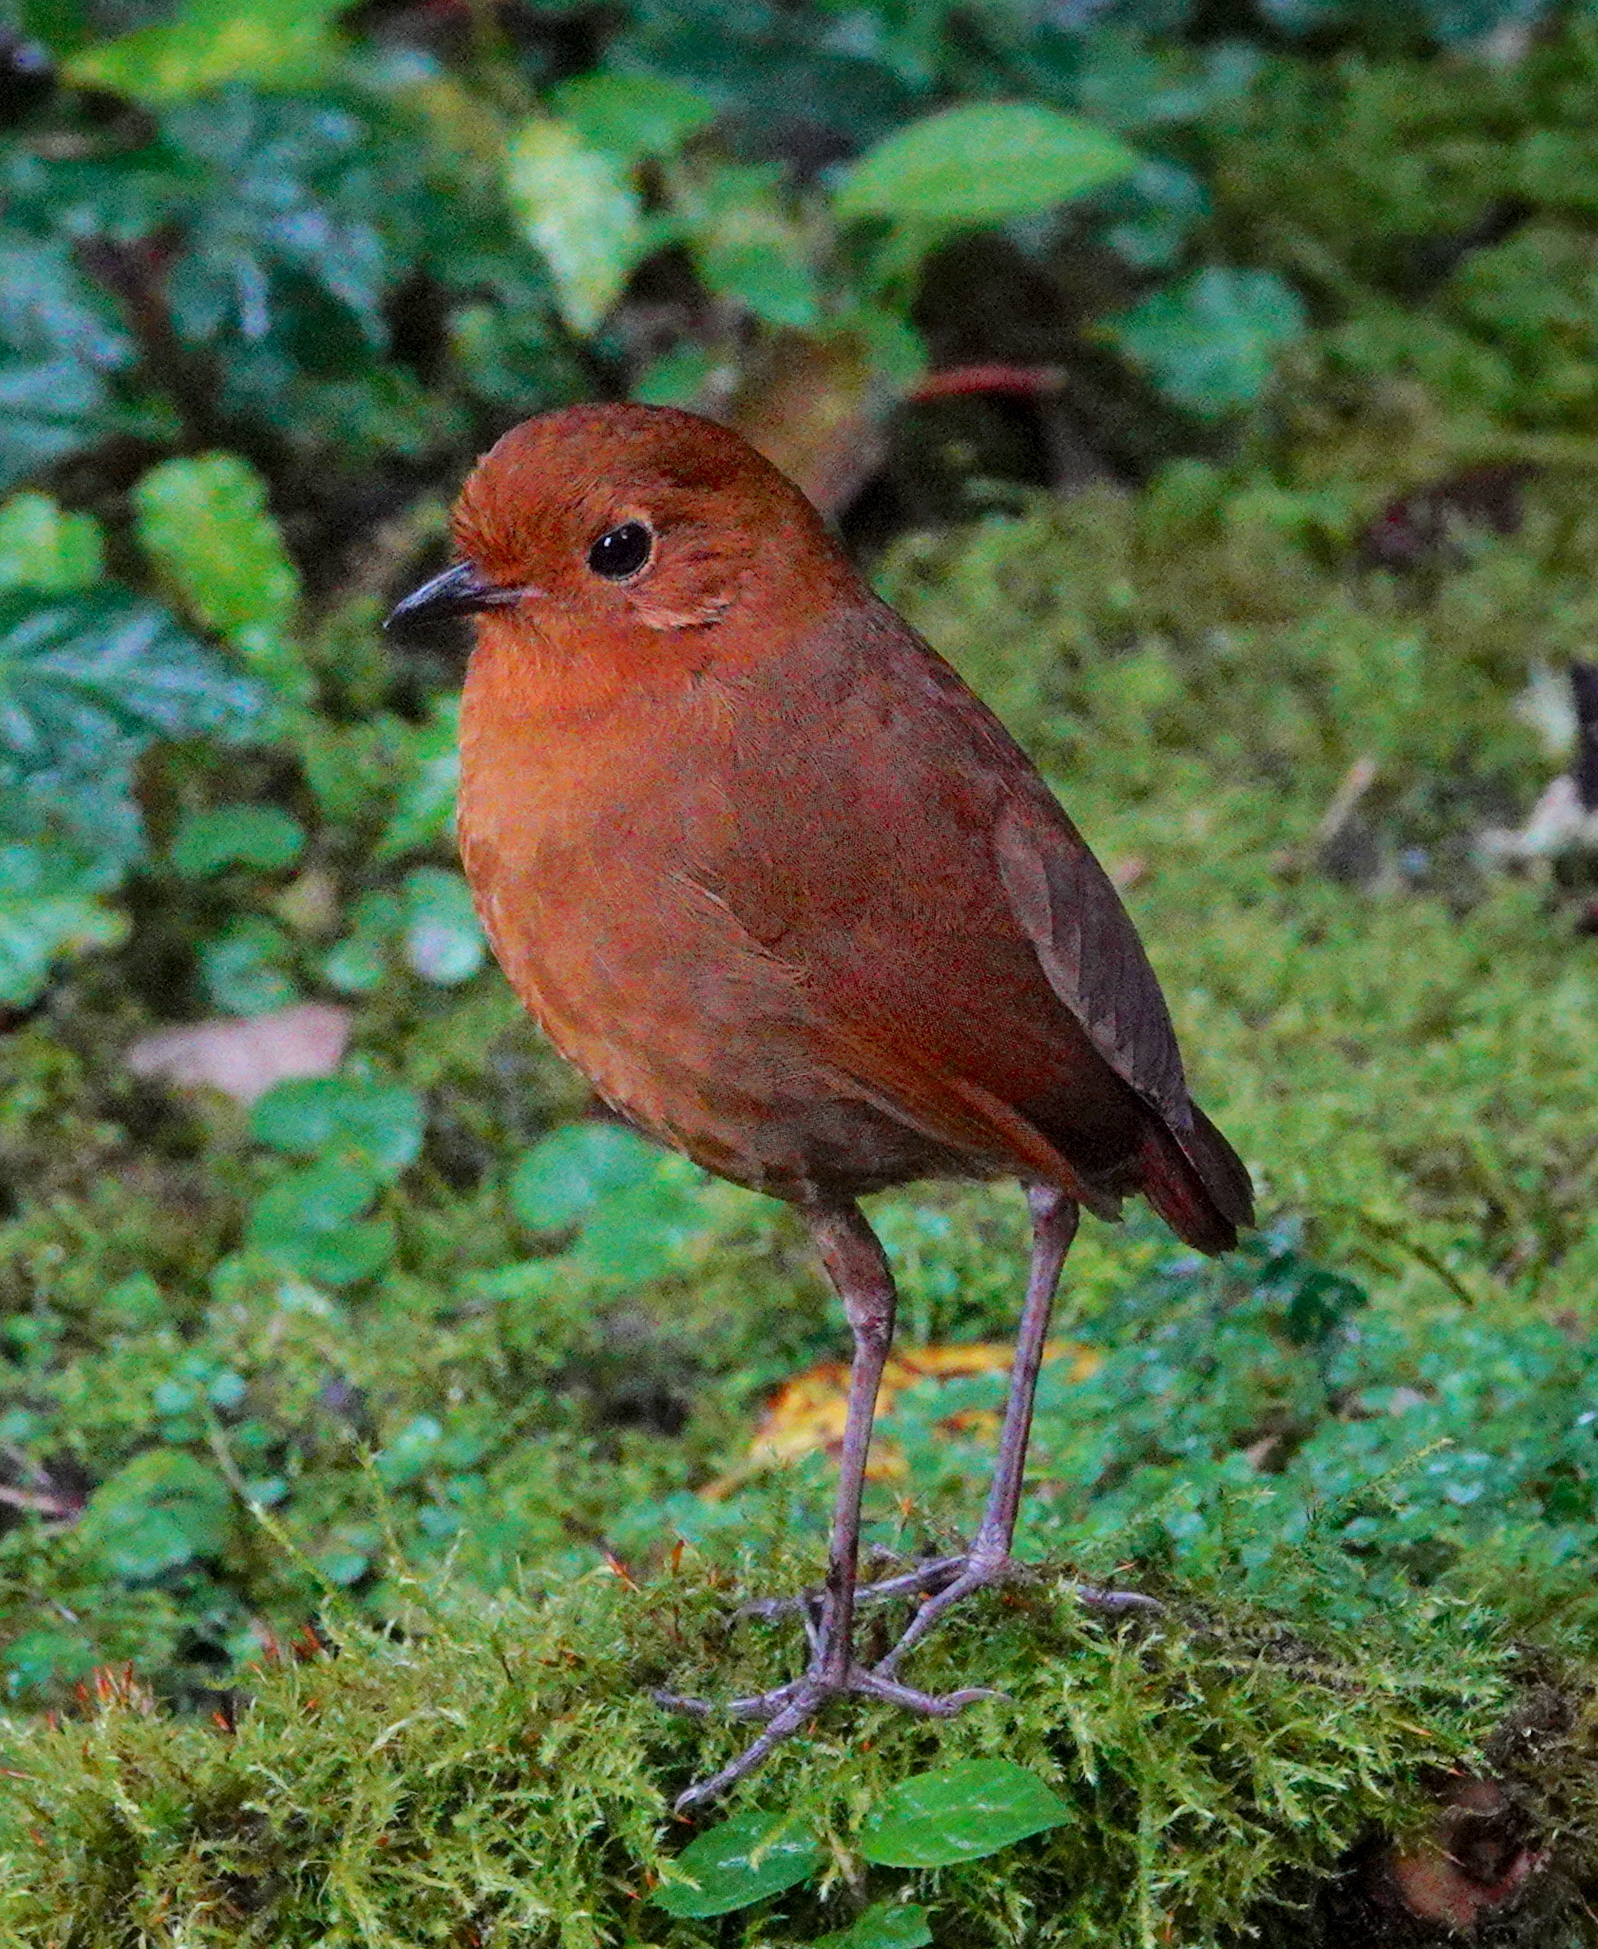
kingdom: Animalia
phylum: Chordata
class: Aves
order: Passeriformes
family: Grallariidae
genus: Grallaria
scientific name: Grallaria saturata
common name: Equatorial antpitta
